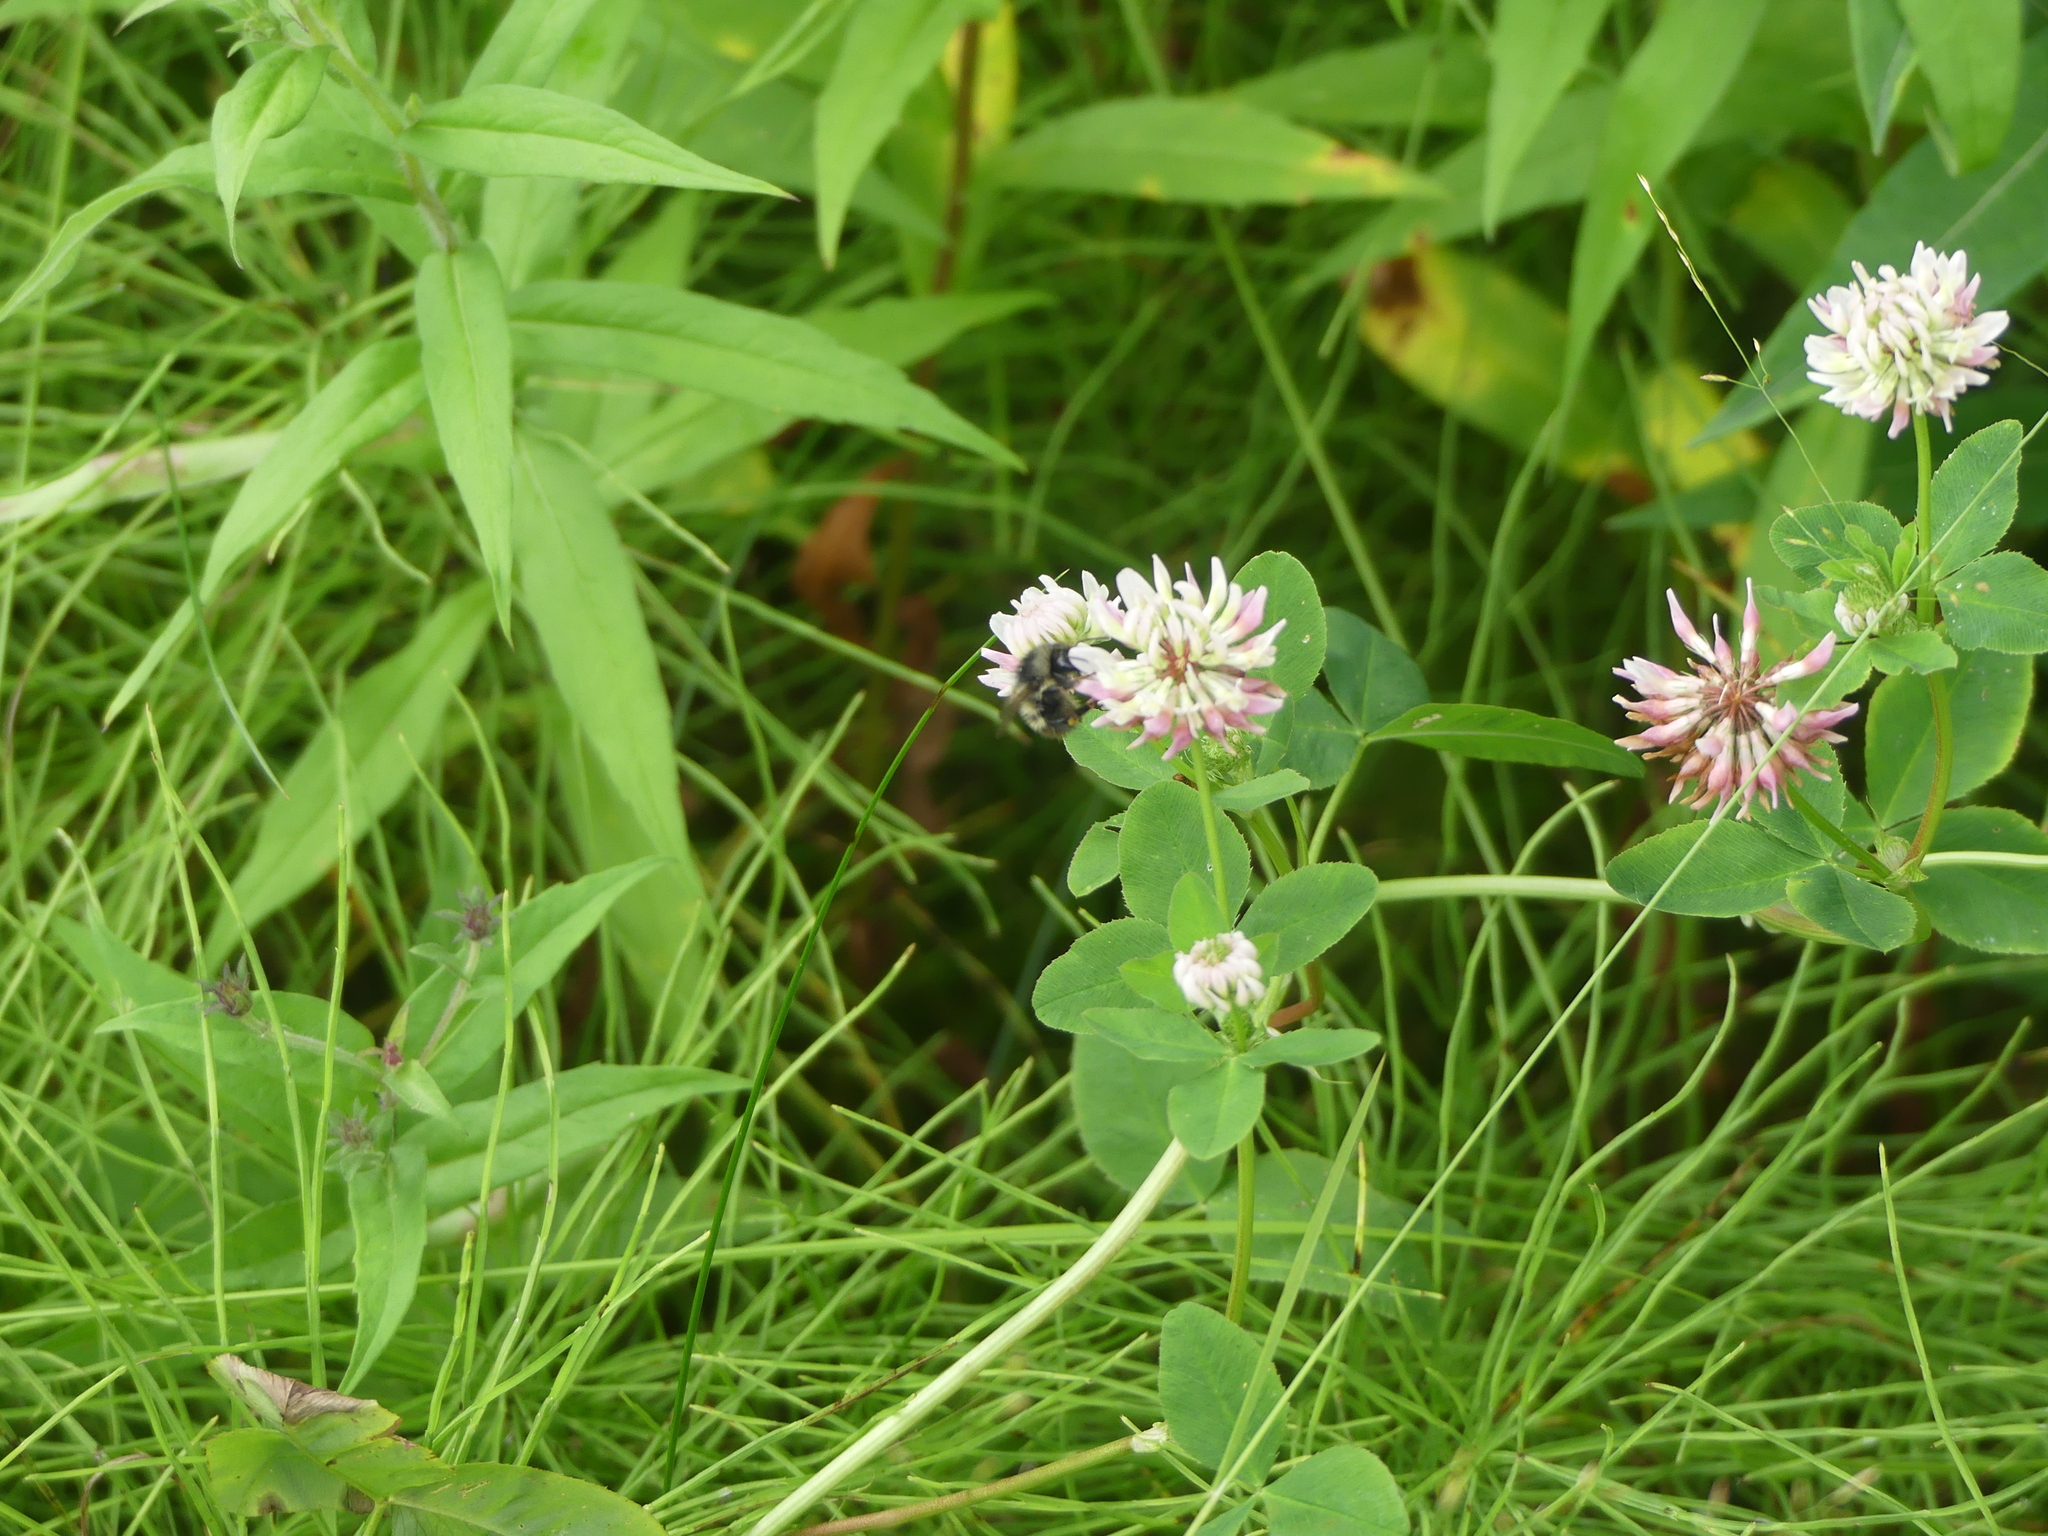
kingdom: Animalia
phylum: Arthropoda
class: Insecta
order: Hymenoptera
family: Apidae
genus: Bombus
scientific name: Bombus flavifrons
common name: Yellow head bumble bee
